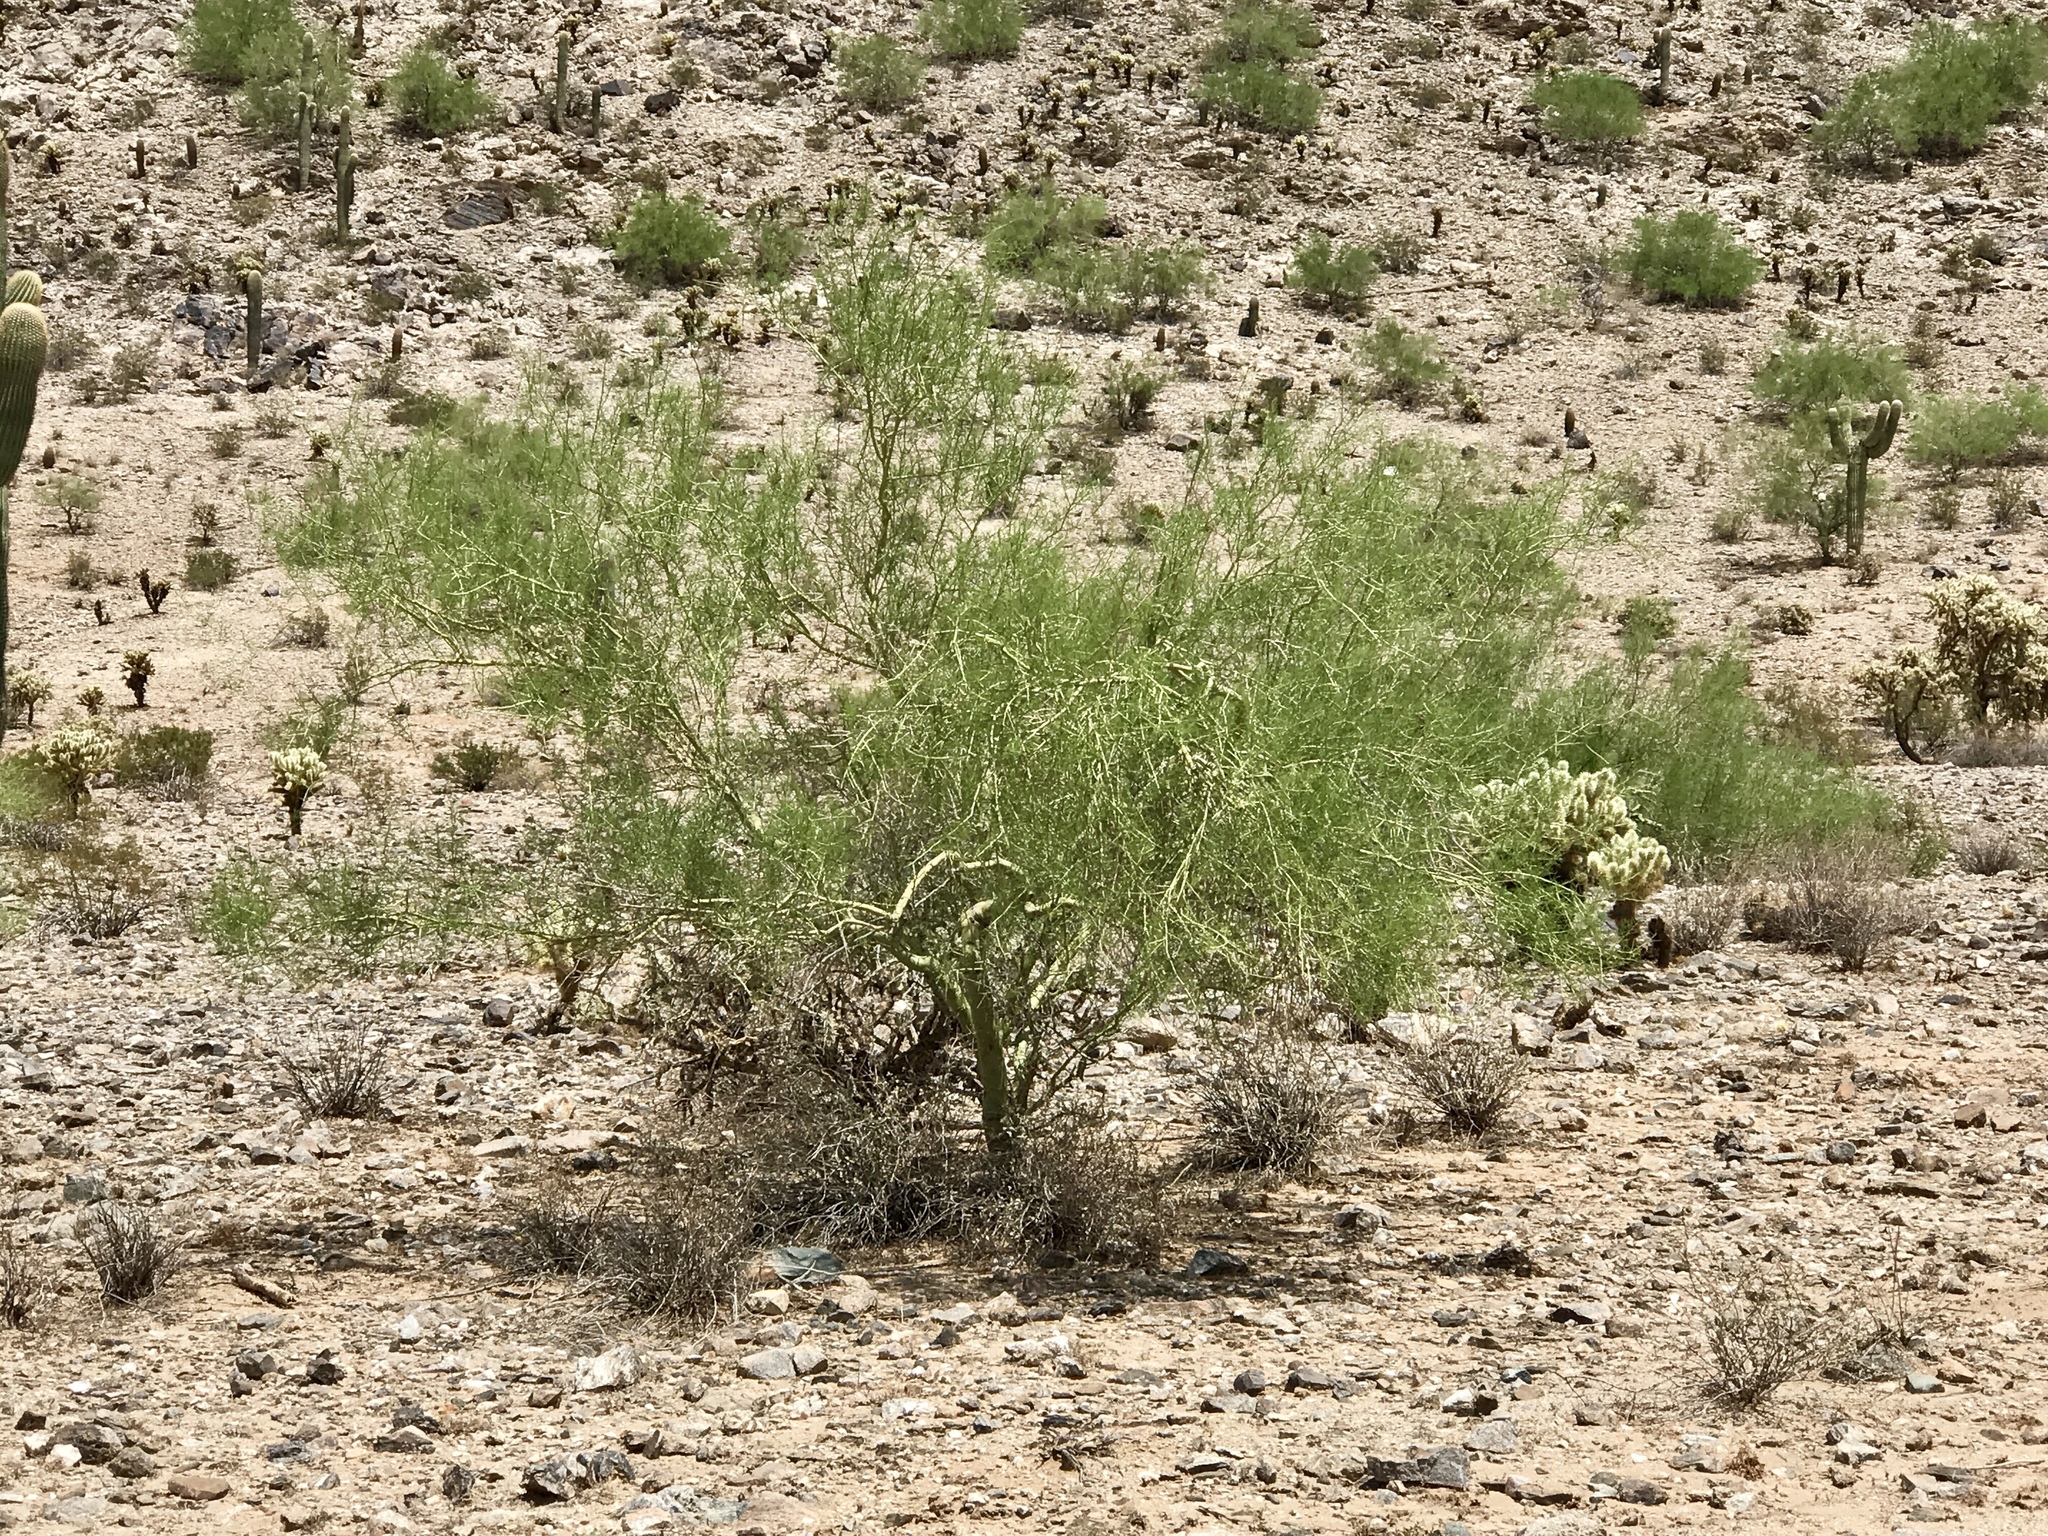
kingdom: Plantae
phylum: Tracheophyta
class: Magnoliopsida
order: Fabales
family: Fabaceae
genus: Parkinsonia
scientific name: Parkinsonia microphylla
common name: Yellow paloverde
